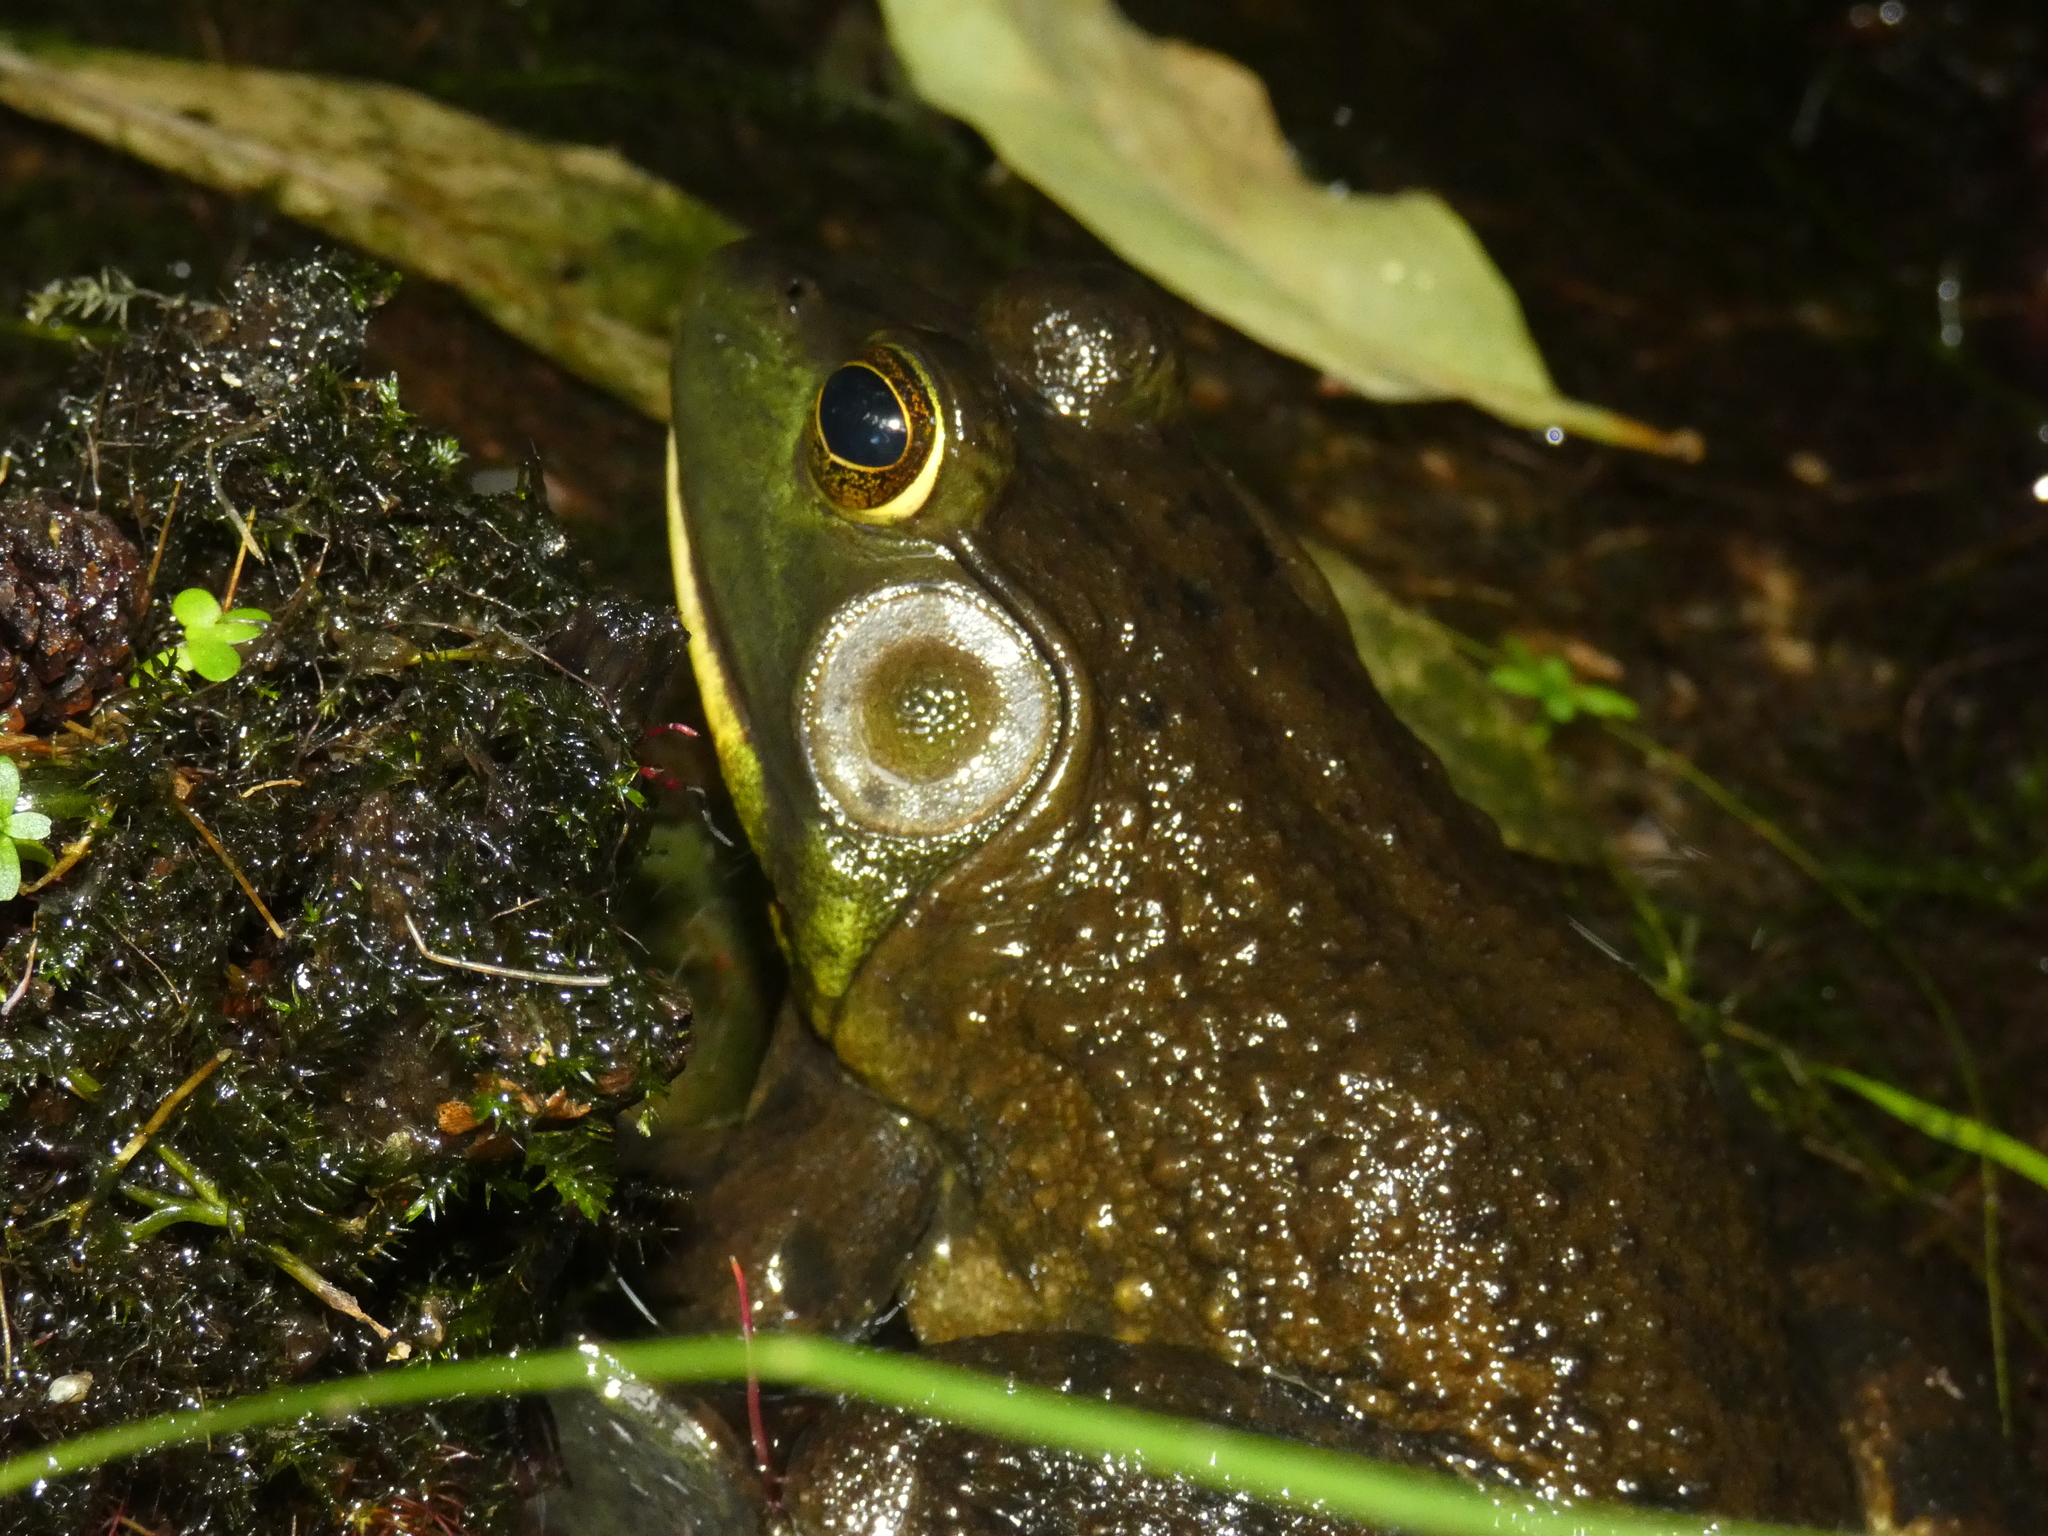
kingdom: Animalia
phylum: Chordata
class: Amphibia
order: Anura
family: Ranidae
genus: Lithobates
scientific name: Lithobates catesbeianus
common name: American bullfrog
